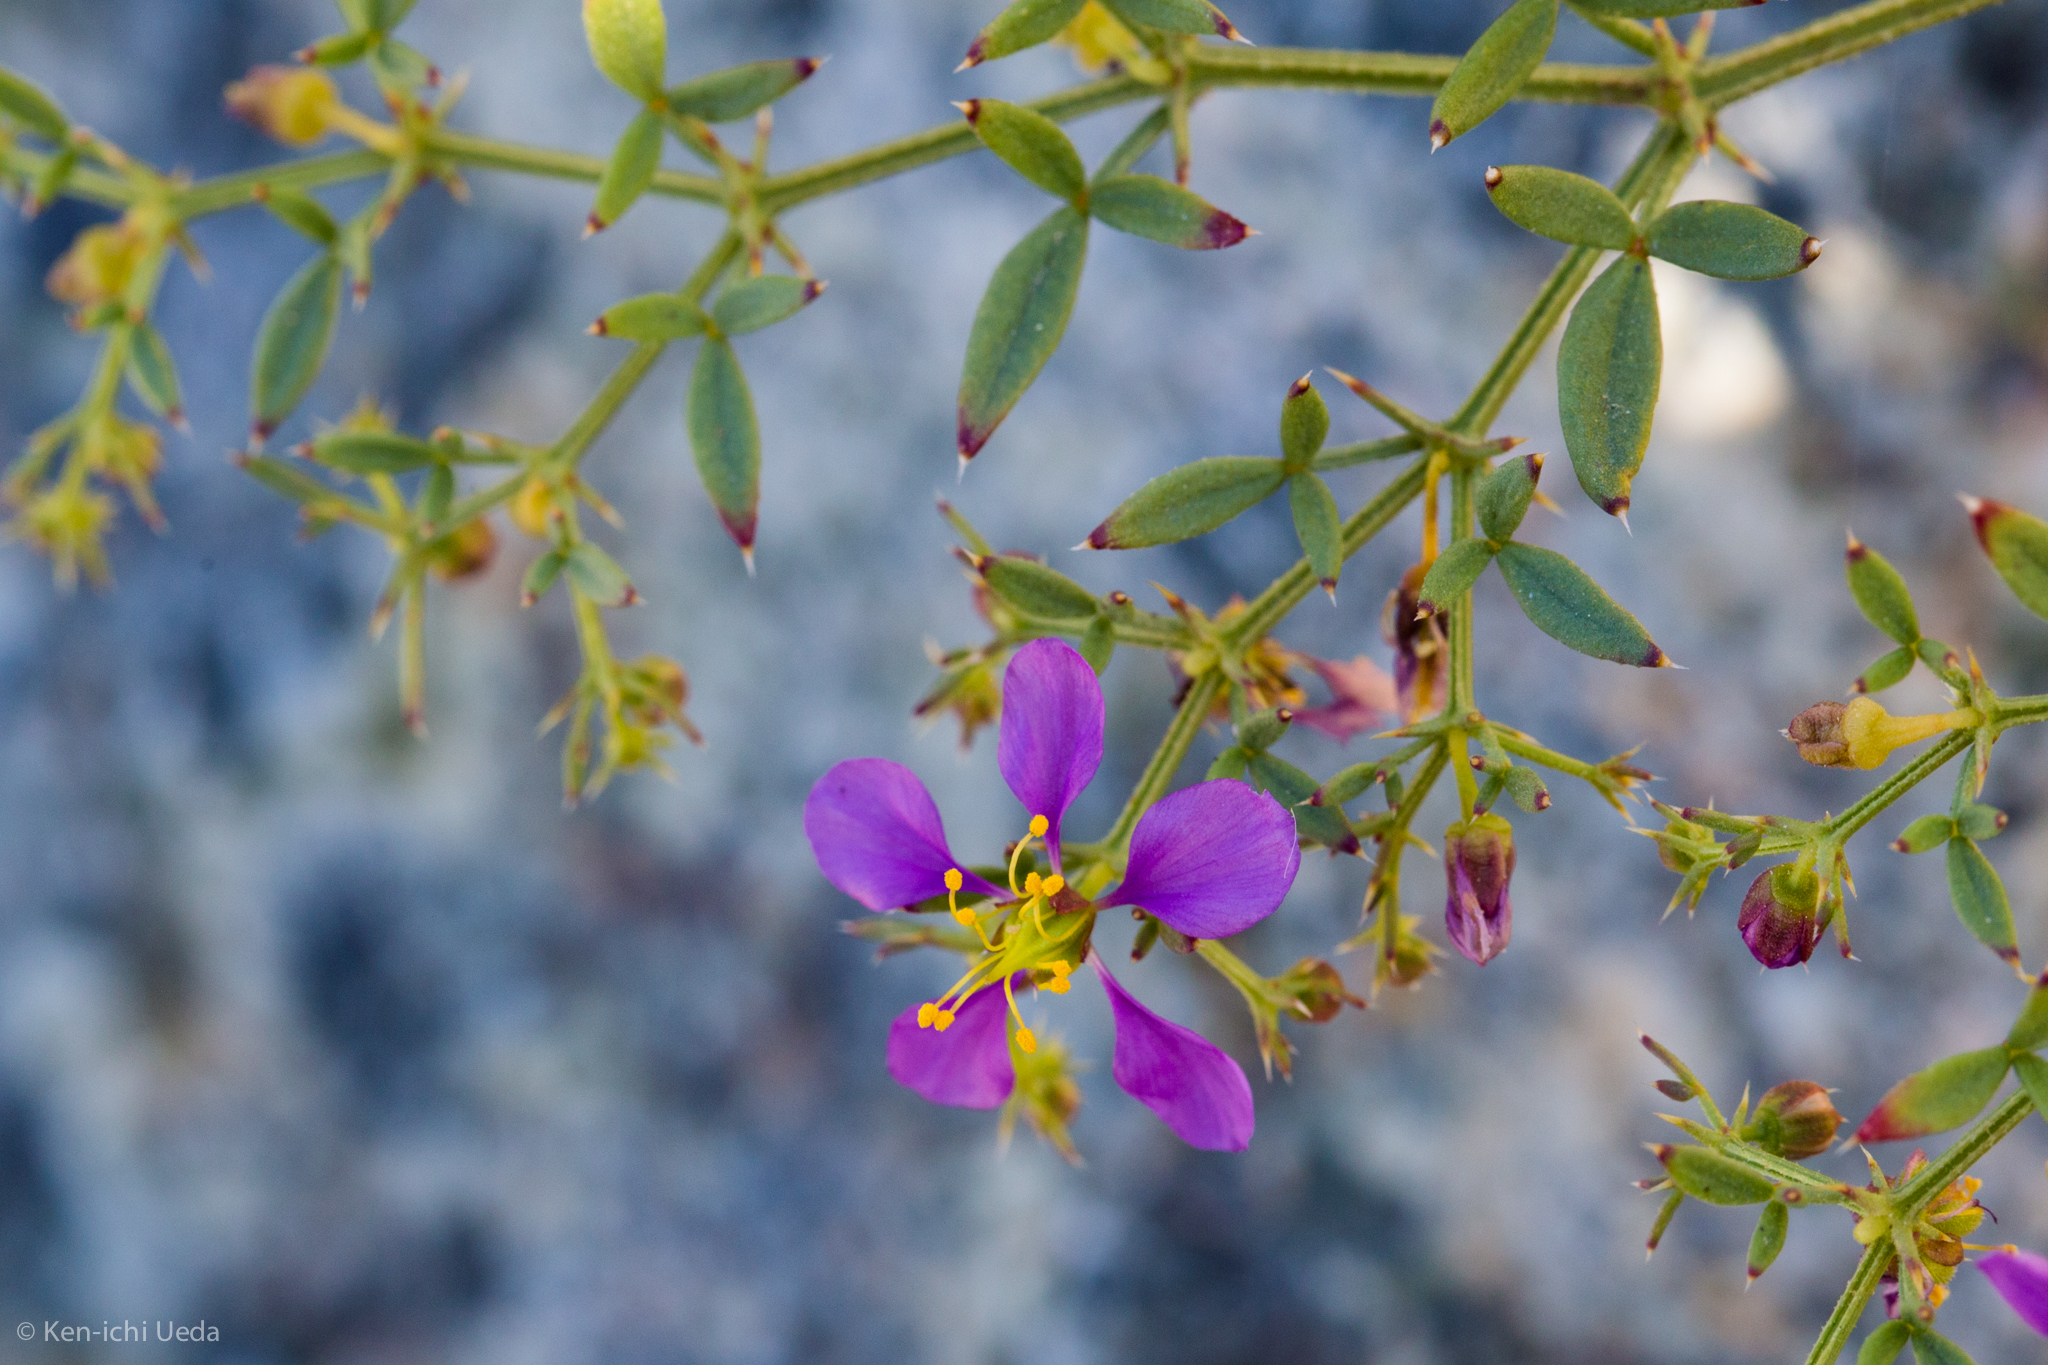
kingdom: Plantae
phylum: Tracheophyta
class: Magnoliopsida
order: Zygophyllales
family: Zygophyllaceae
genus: Fagonia
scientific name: Fagonia laevis
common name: California fagonbush
